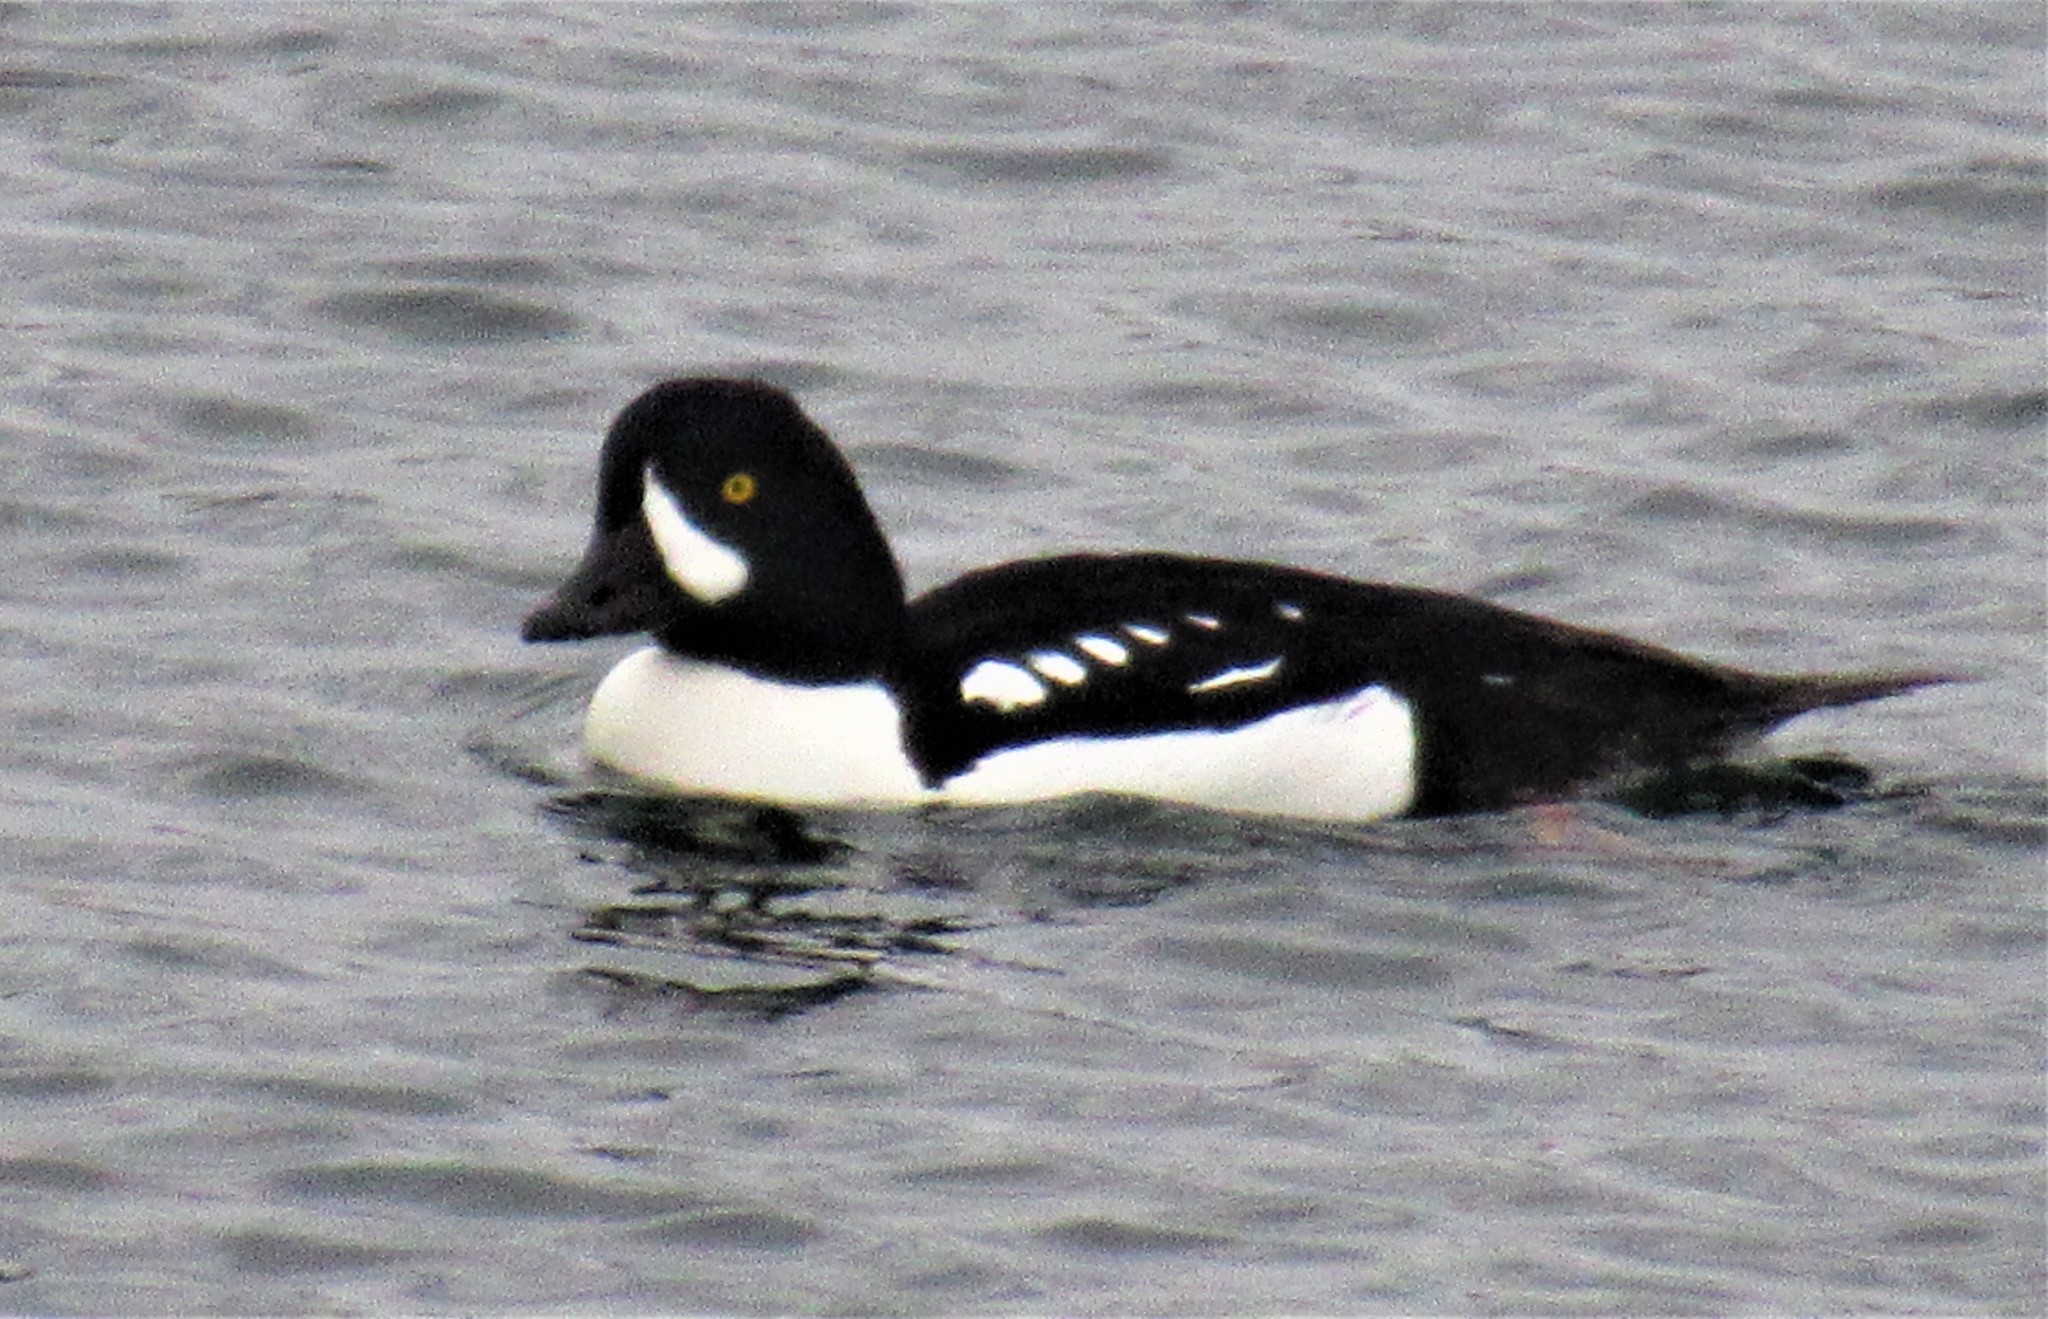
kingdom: Animalia
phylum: Chordata
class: Aves
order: Anseriformes
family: Anatidae
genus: Bucephala
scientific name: Bucephala islandica
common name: Barrow's goldeneye
